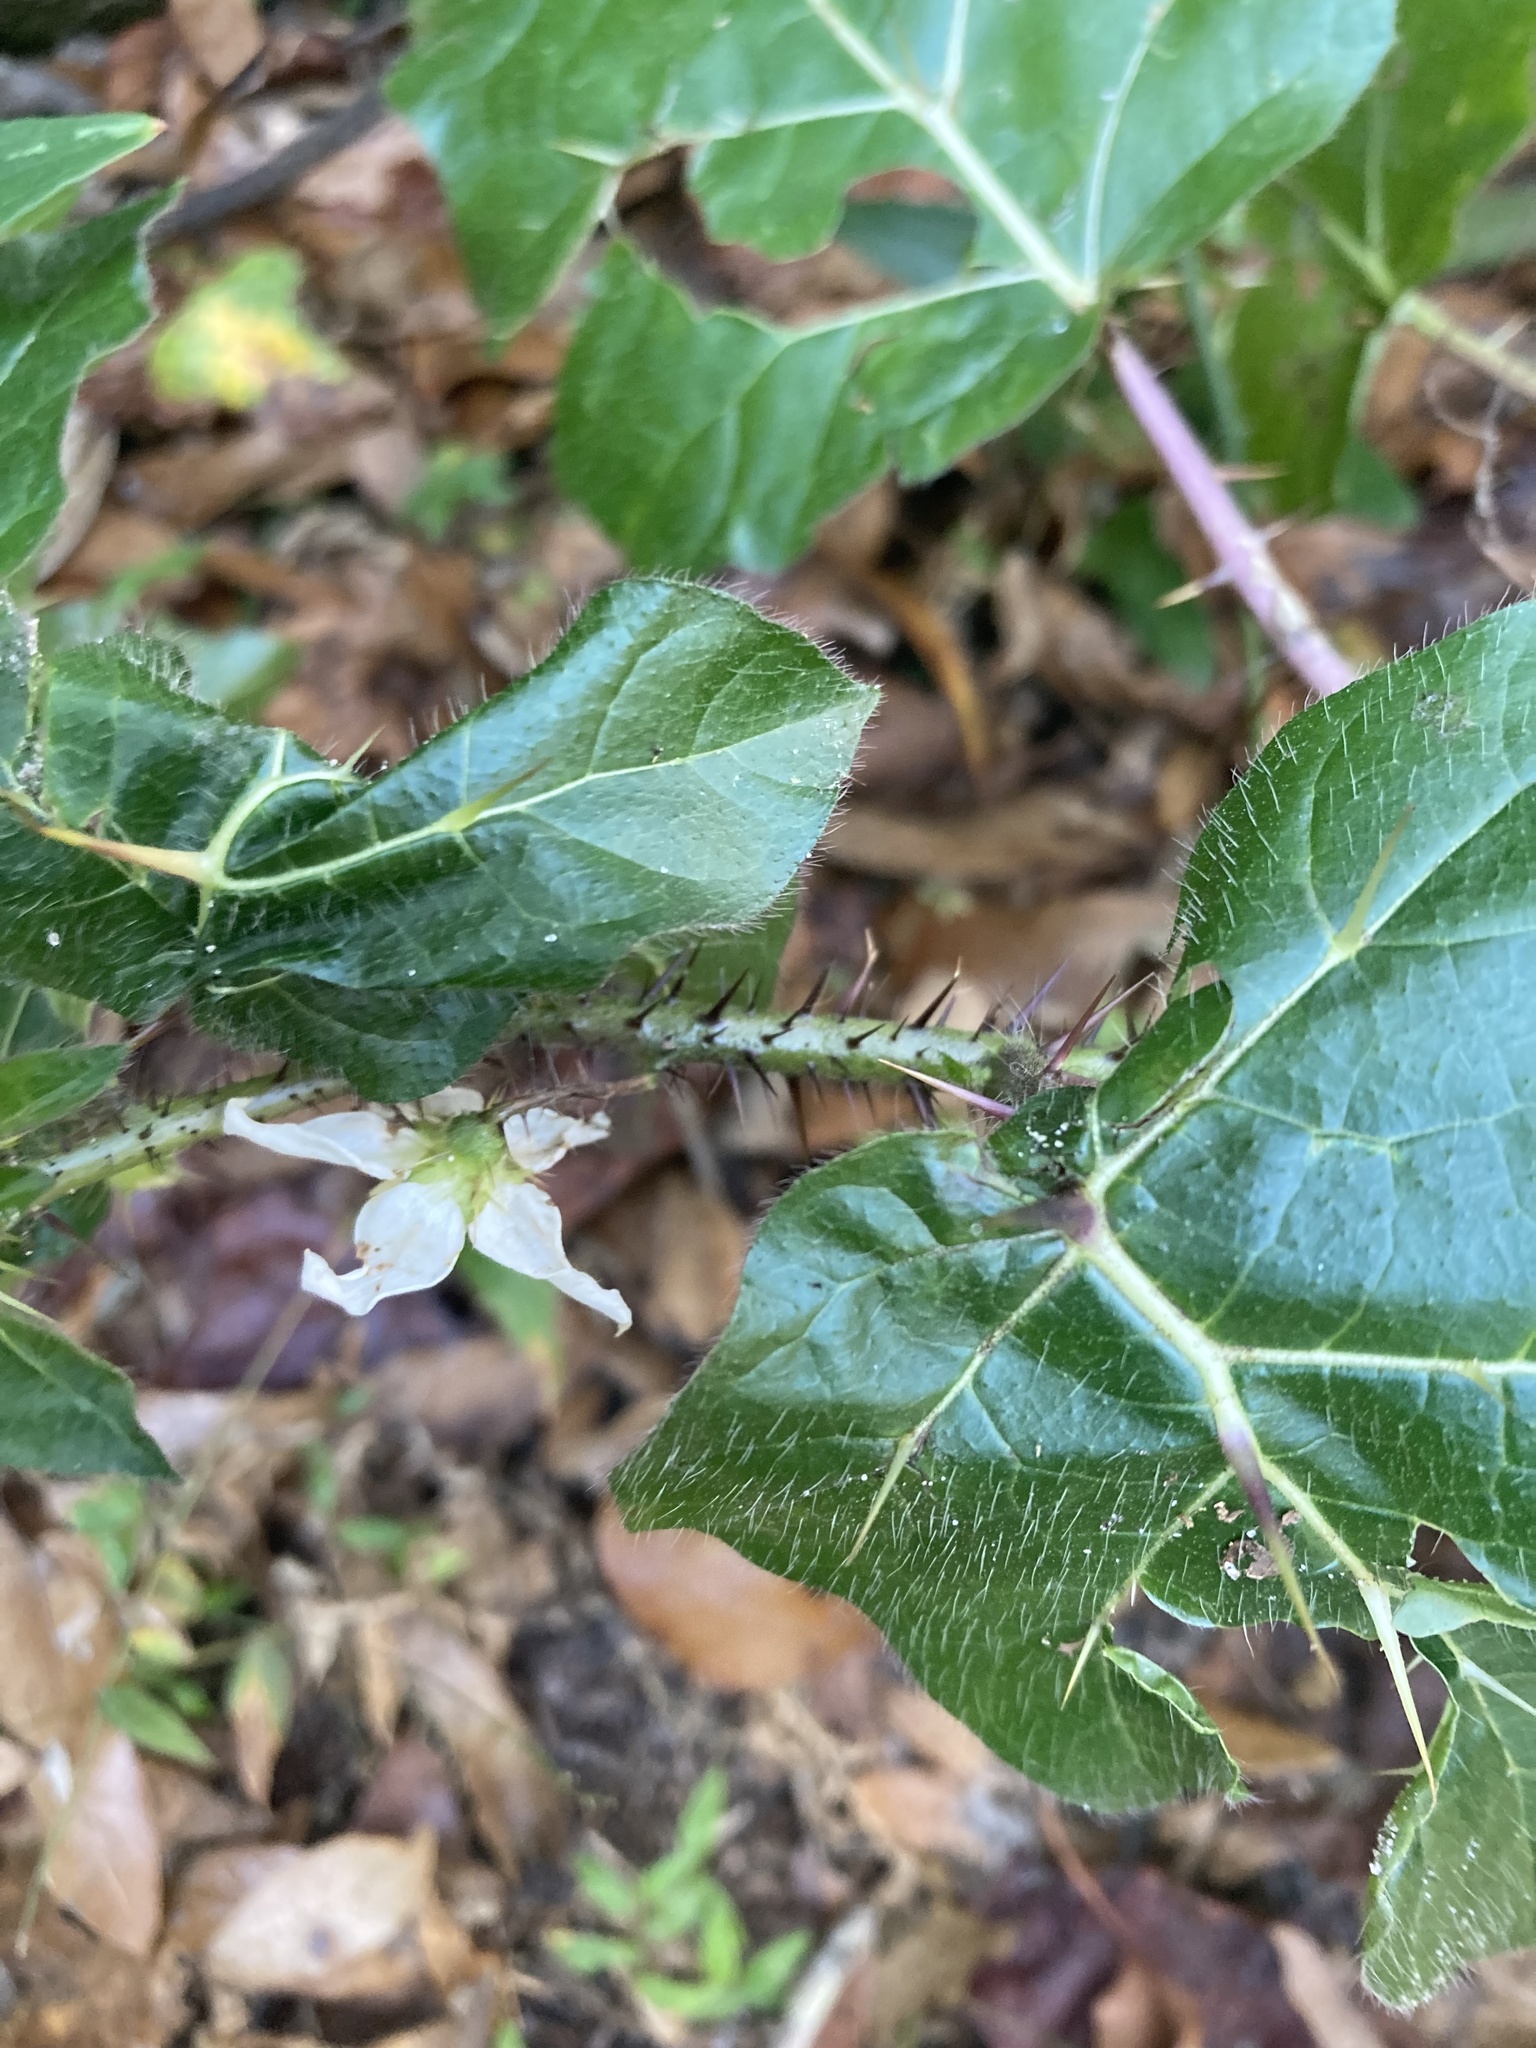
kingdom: Plantae
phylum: Tracheophyta
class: Magnoliopsida
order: Solanales
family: Solanaceae
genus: Solanum
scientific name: Solanum capsicoides
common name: Cockroach berry
